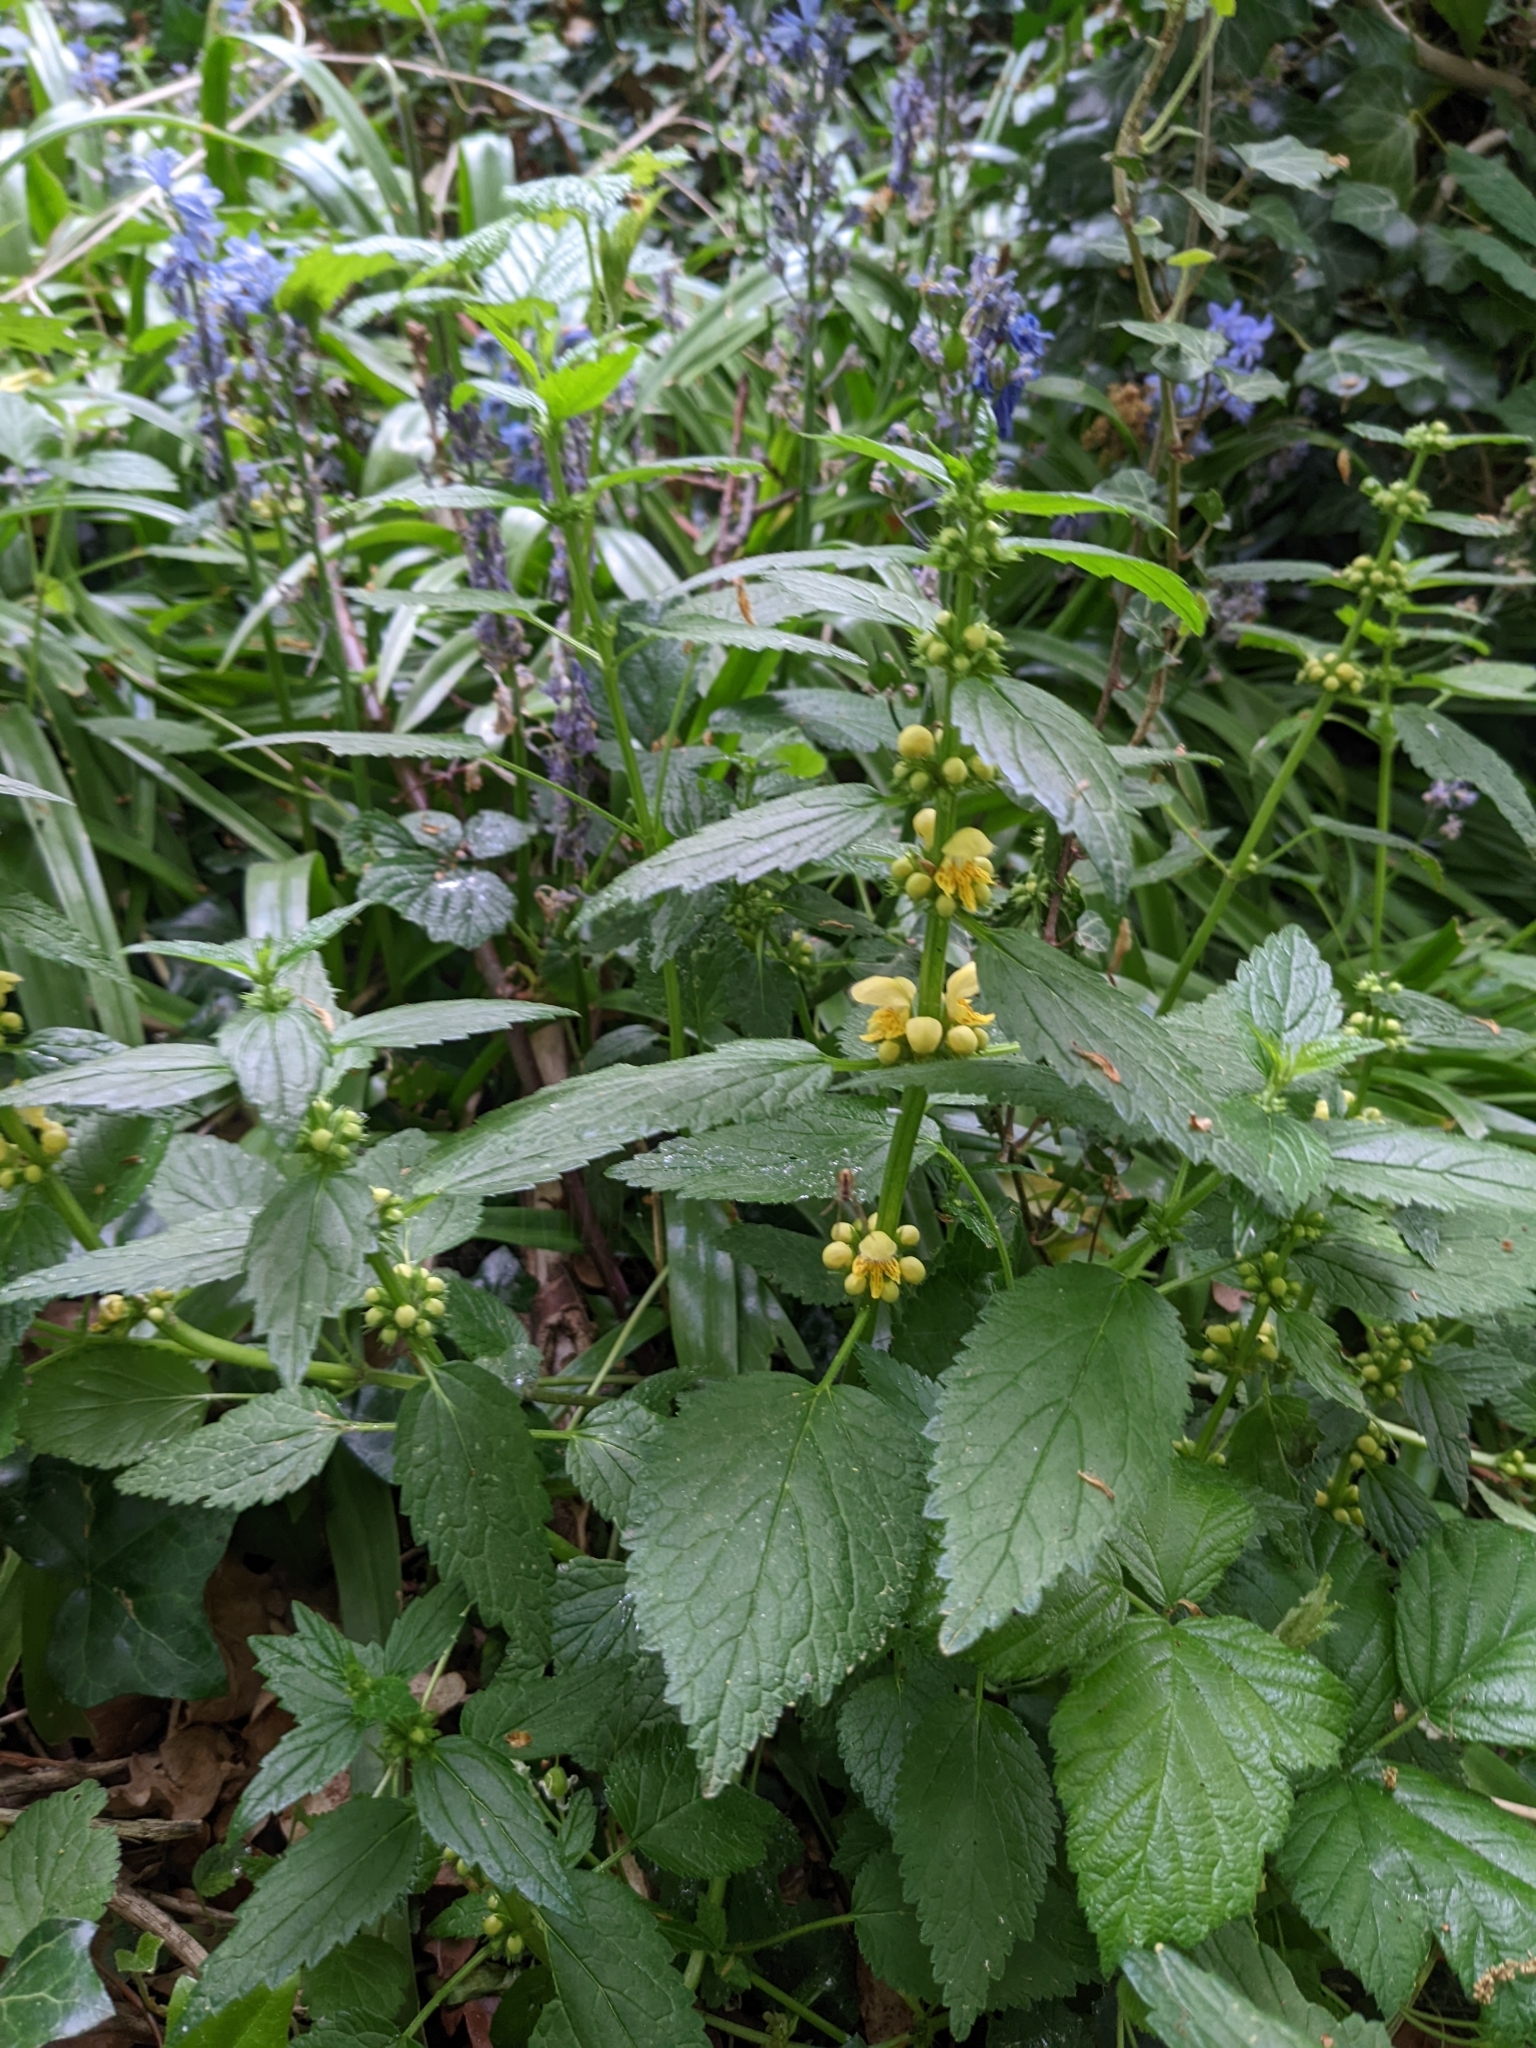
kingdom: Plantae
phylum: Tracheophyta
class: Magnoliopsida
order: Lamiales
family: Lamiaceae
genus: Lamium
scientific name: Lamium galeobdolon
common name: Yellow archangel
